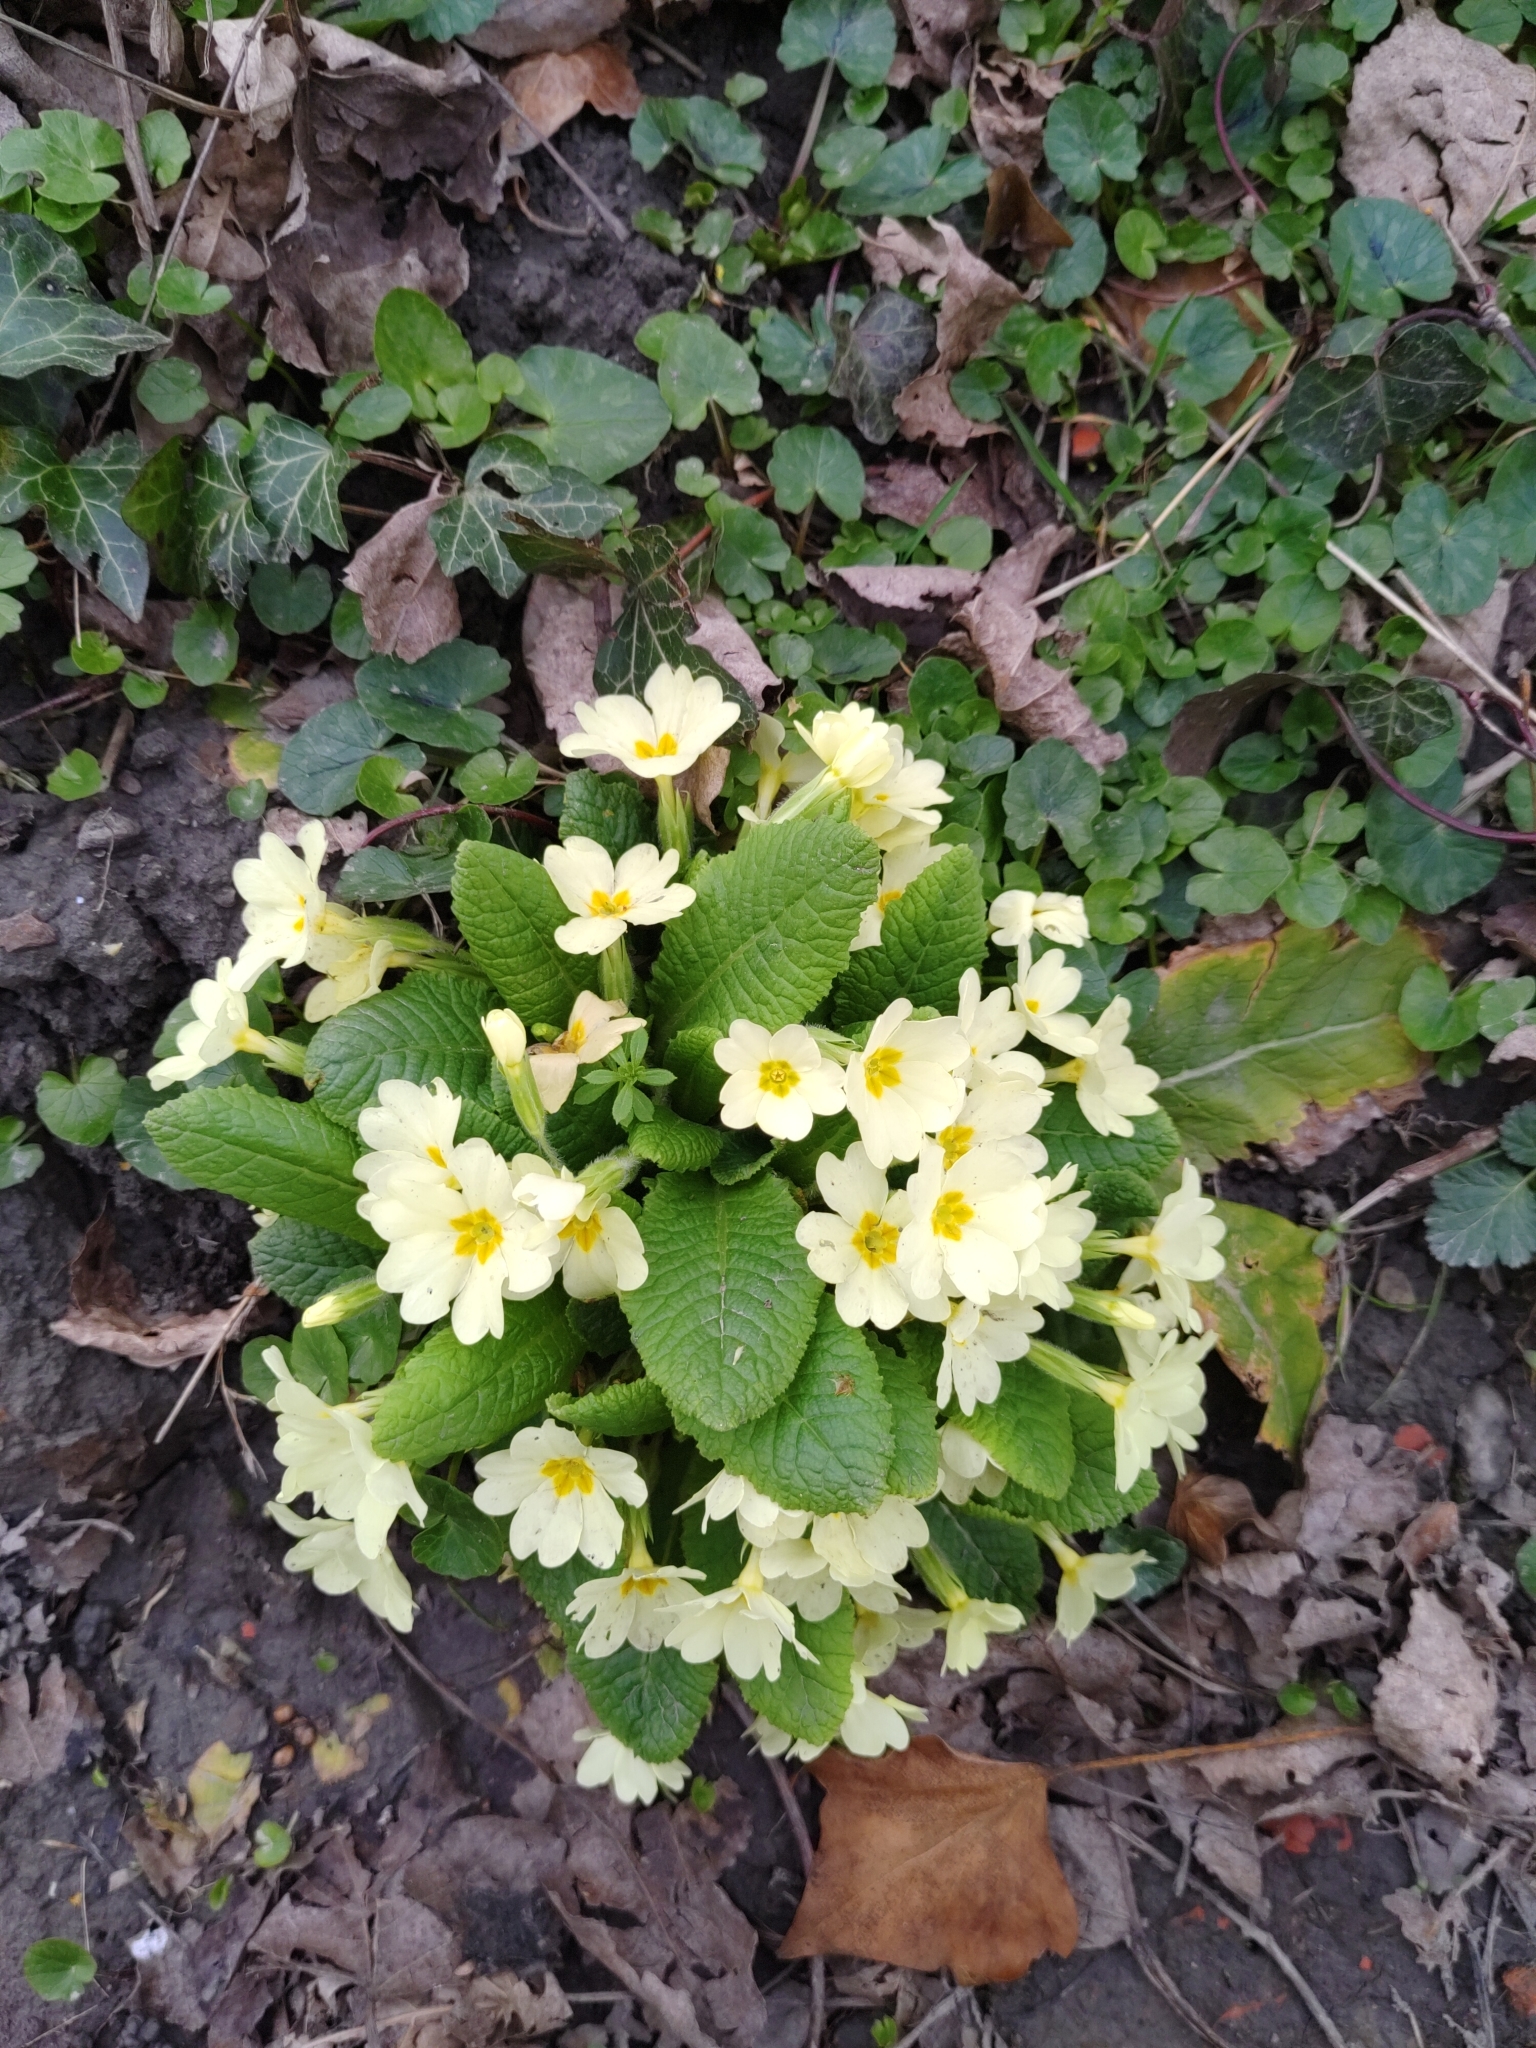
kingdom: Plantae
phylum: Tracheophyta
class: Magnoliopsida
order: Ericales
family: Primulaceae
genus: Primula
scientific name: Primula vulgaris
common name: Primrose
